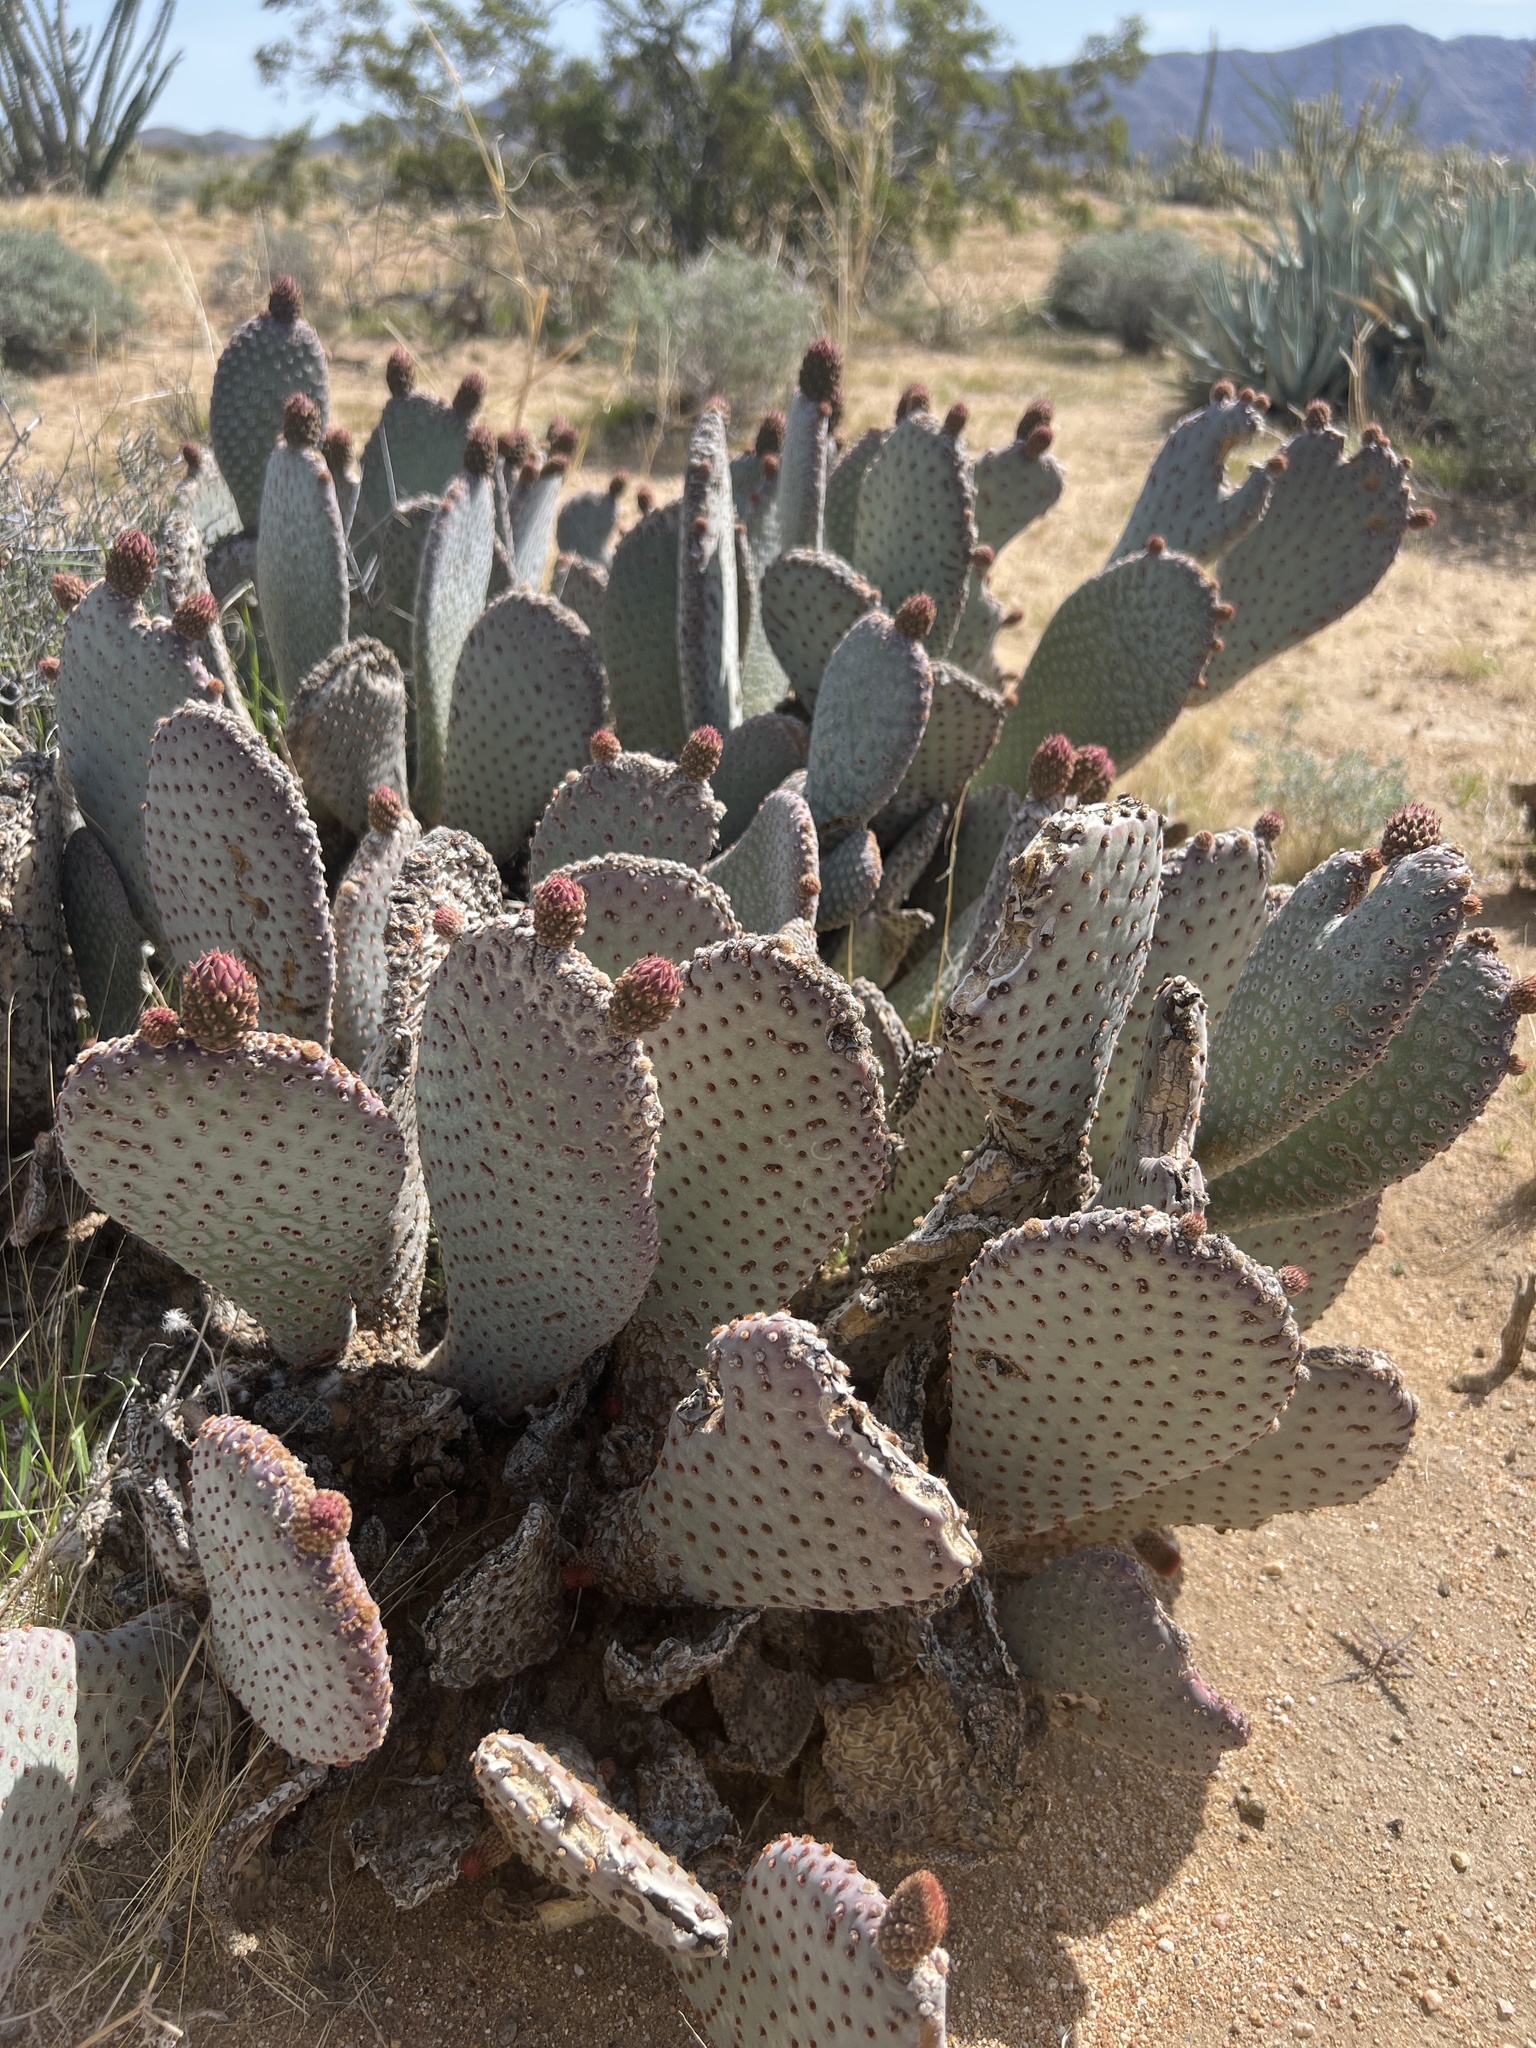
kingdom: Plantae
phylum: Tracheophyta
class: Magnoliopsida
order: Caryophyllales
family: Cactaceae
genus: Opuntia
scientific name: Opuntia basilaris
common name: Beavertail prickly-pear
